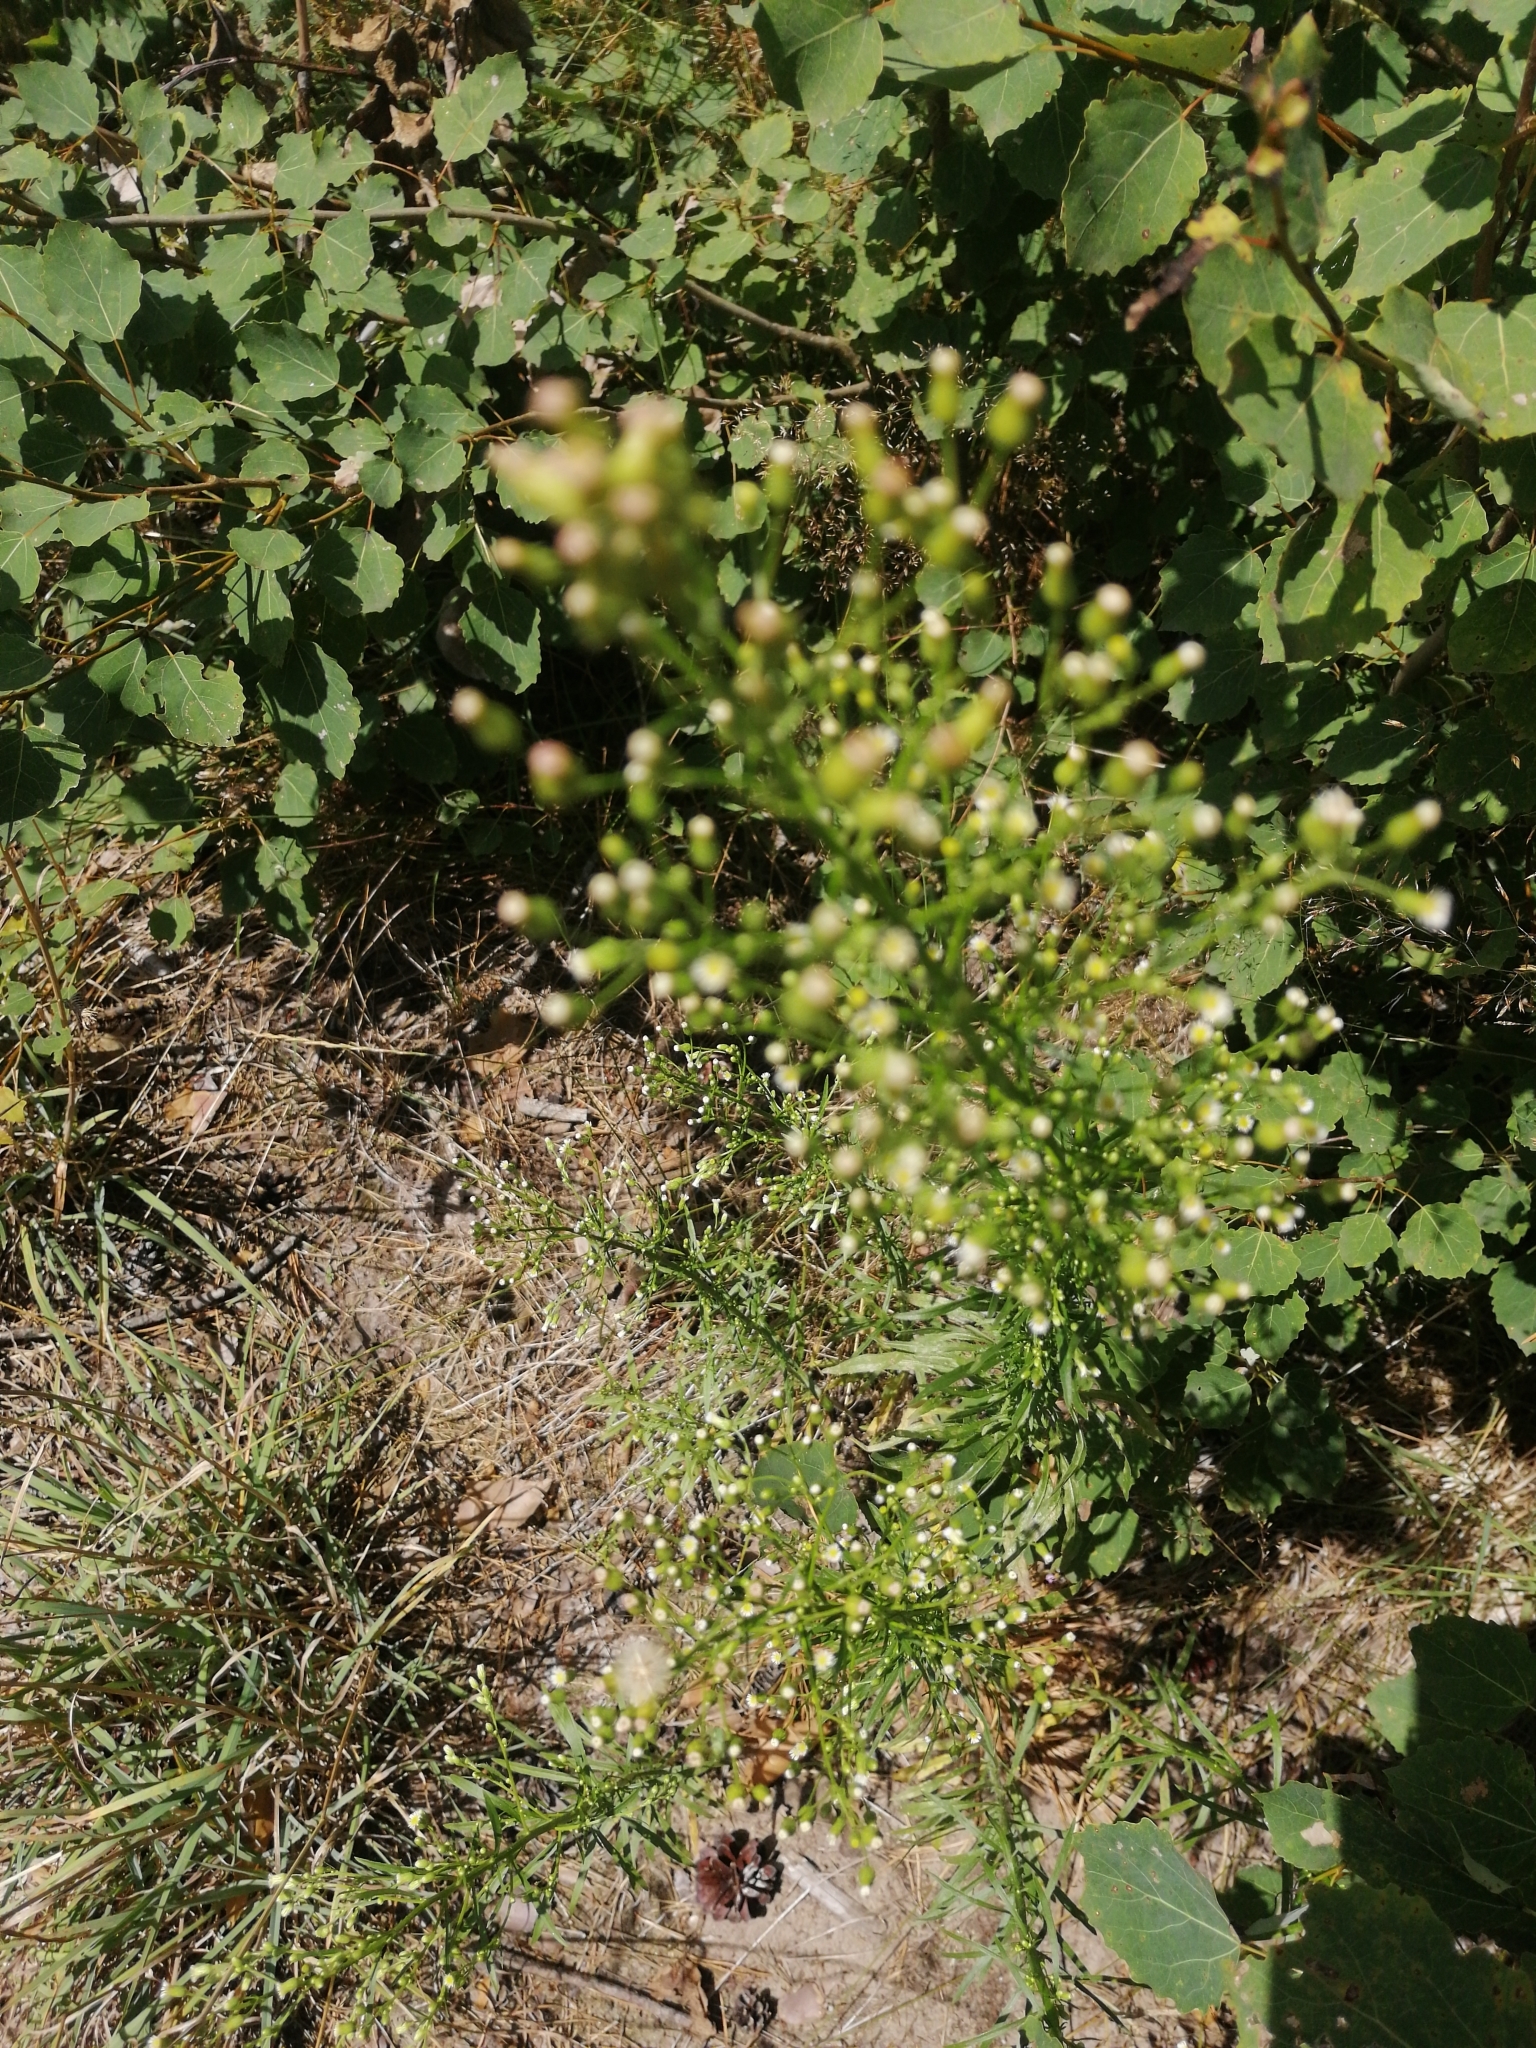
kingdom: Plantae
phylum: Tracheophyta
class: Magnoliopsida
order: Asterales
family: Asteraceae
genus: Erigeron
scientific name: Erigeron canadensis
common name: Canadian fleabane
